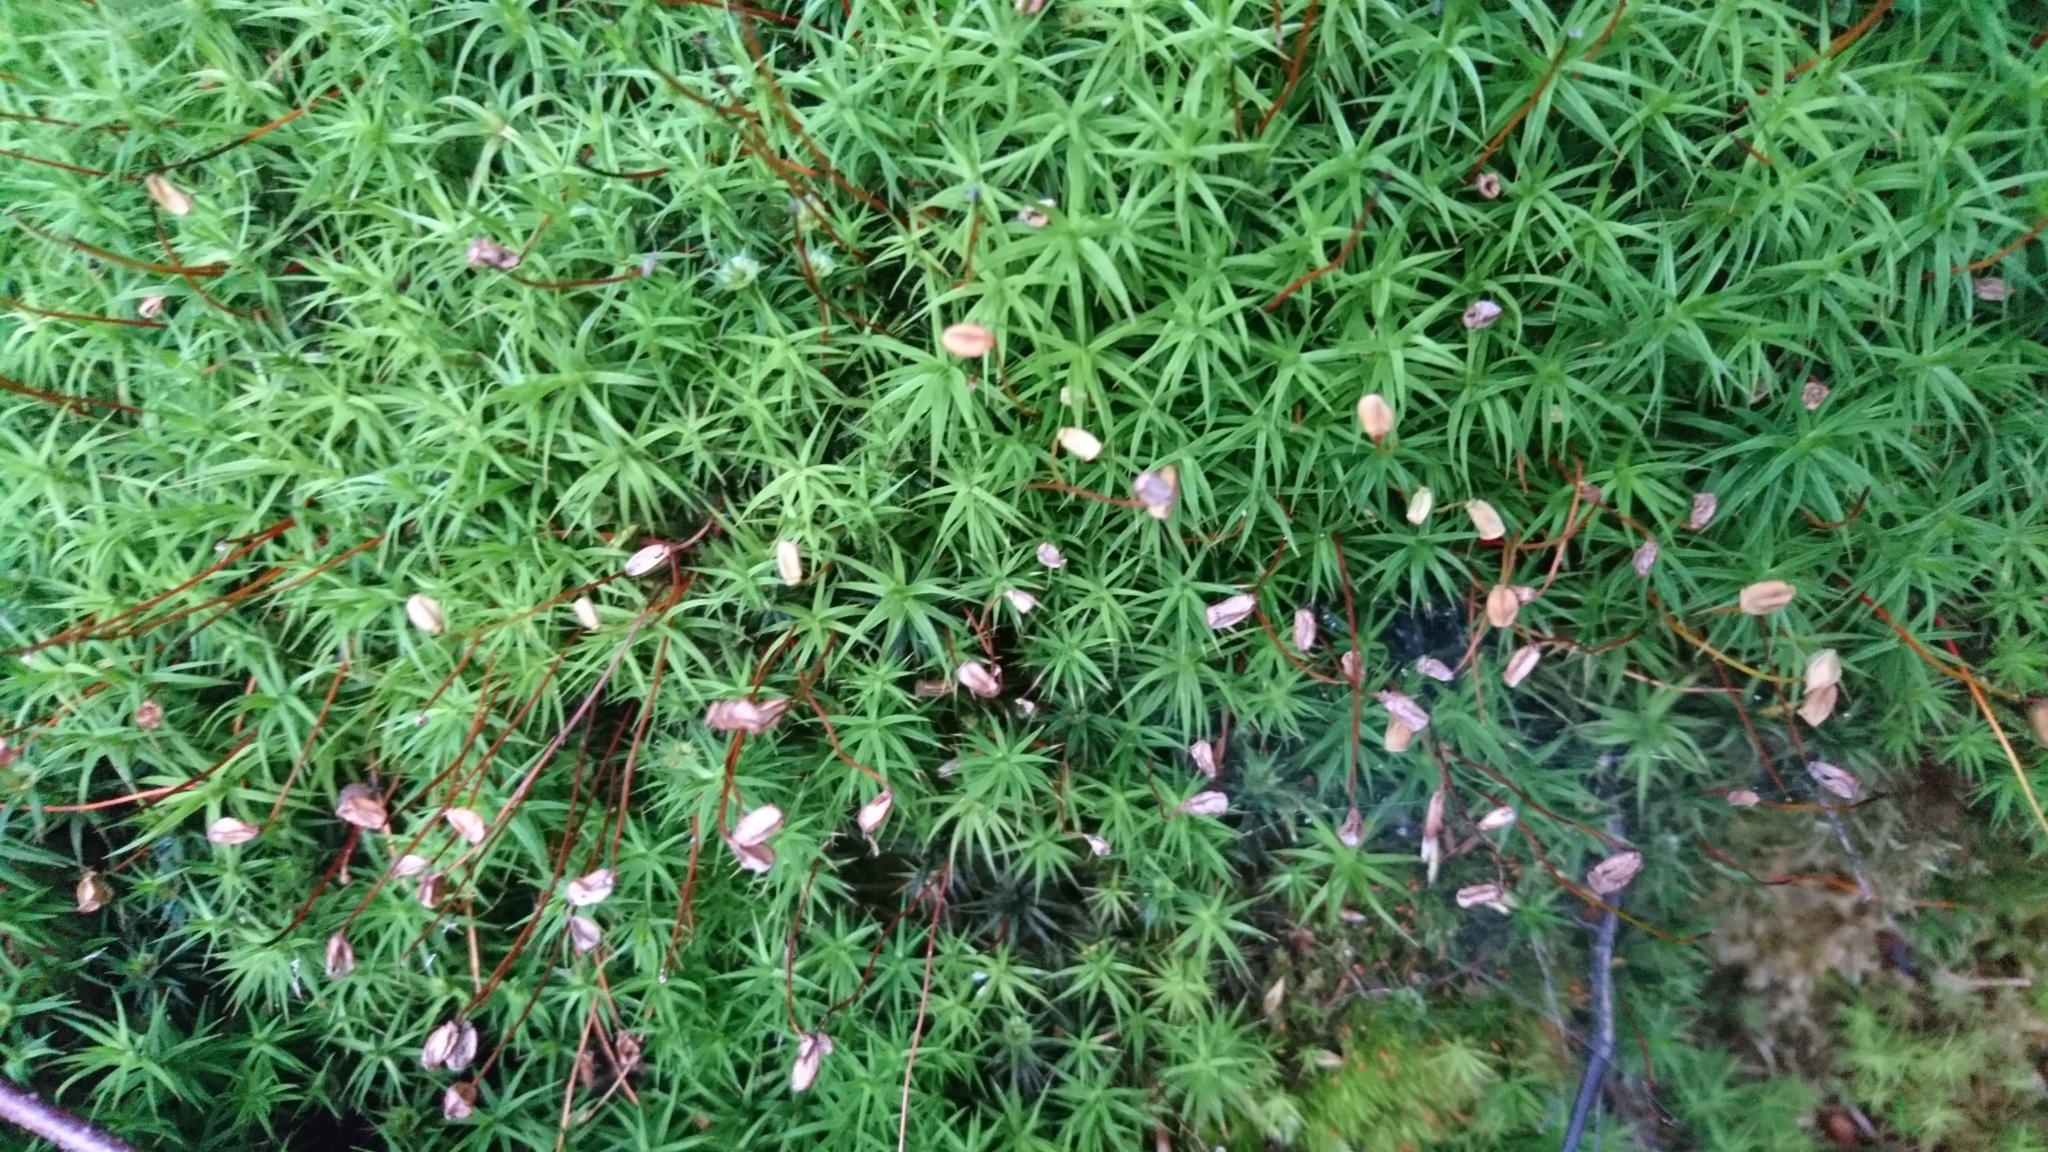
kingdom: Plantae
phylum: Bryophyta
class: Polytrichopsida
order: Polytrichales
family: Polytrichaceae
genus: Polytrichum
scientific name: Polytrichum commune
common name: Common haircap
